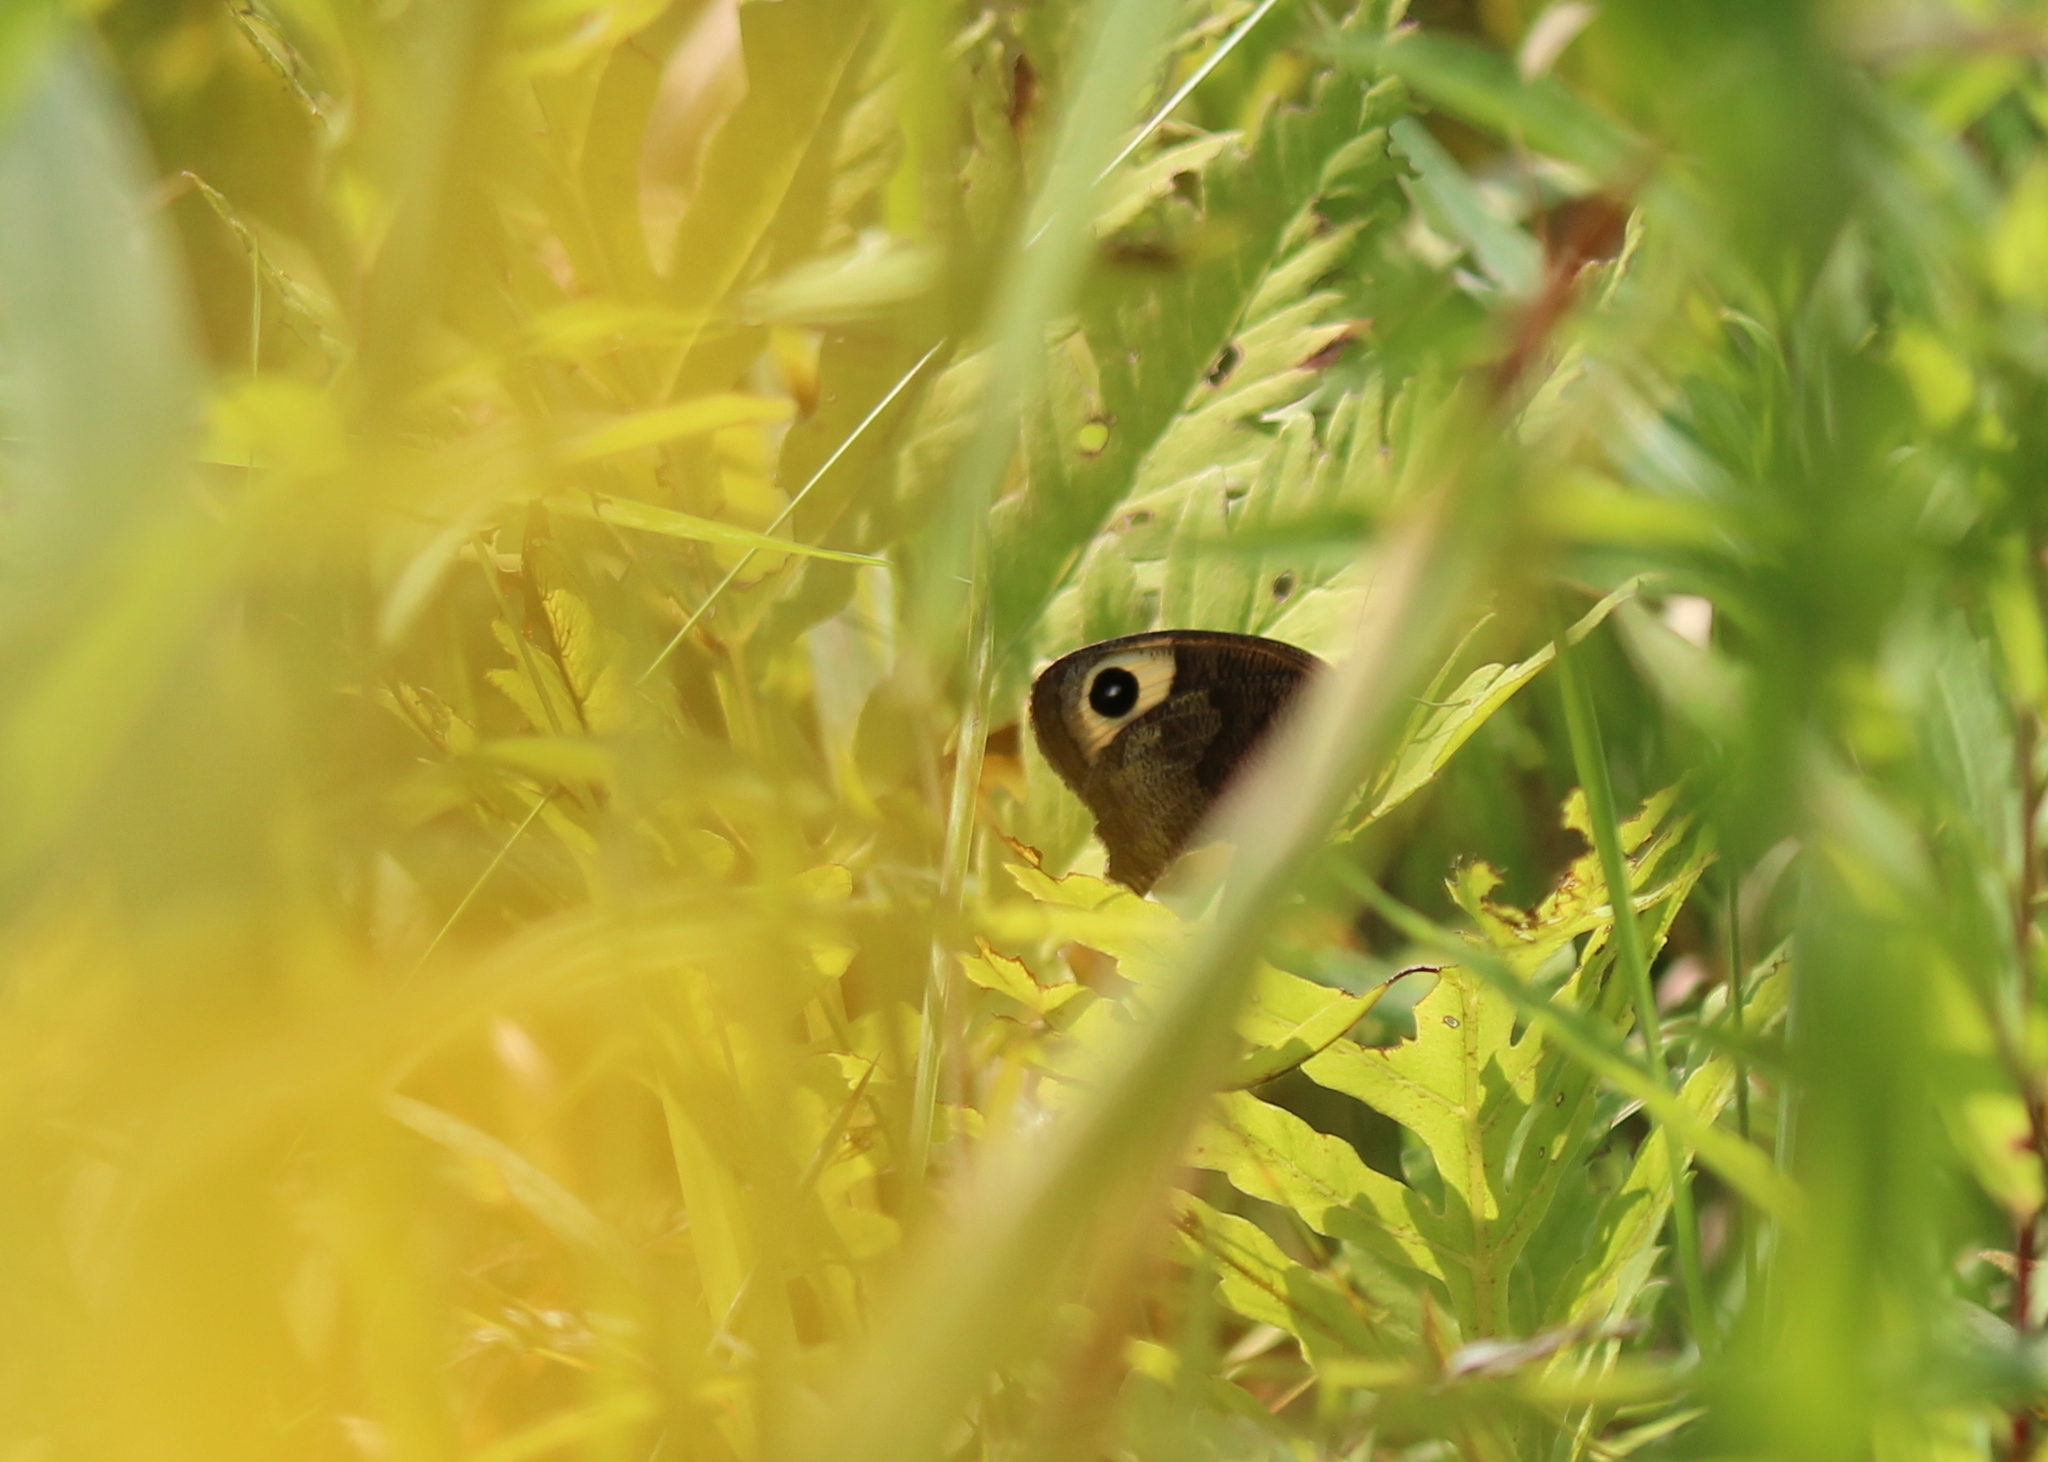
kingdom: Animalia
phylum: Arthropoda
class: Insecta
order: Lepidoptera
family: Nymphalidae
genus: Cercyonis
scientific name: Cercyonis pegala
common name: Common wood-nymph
